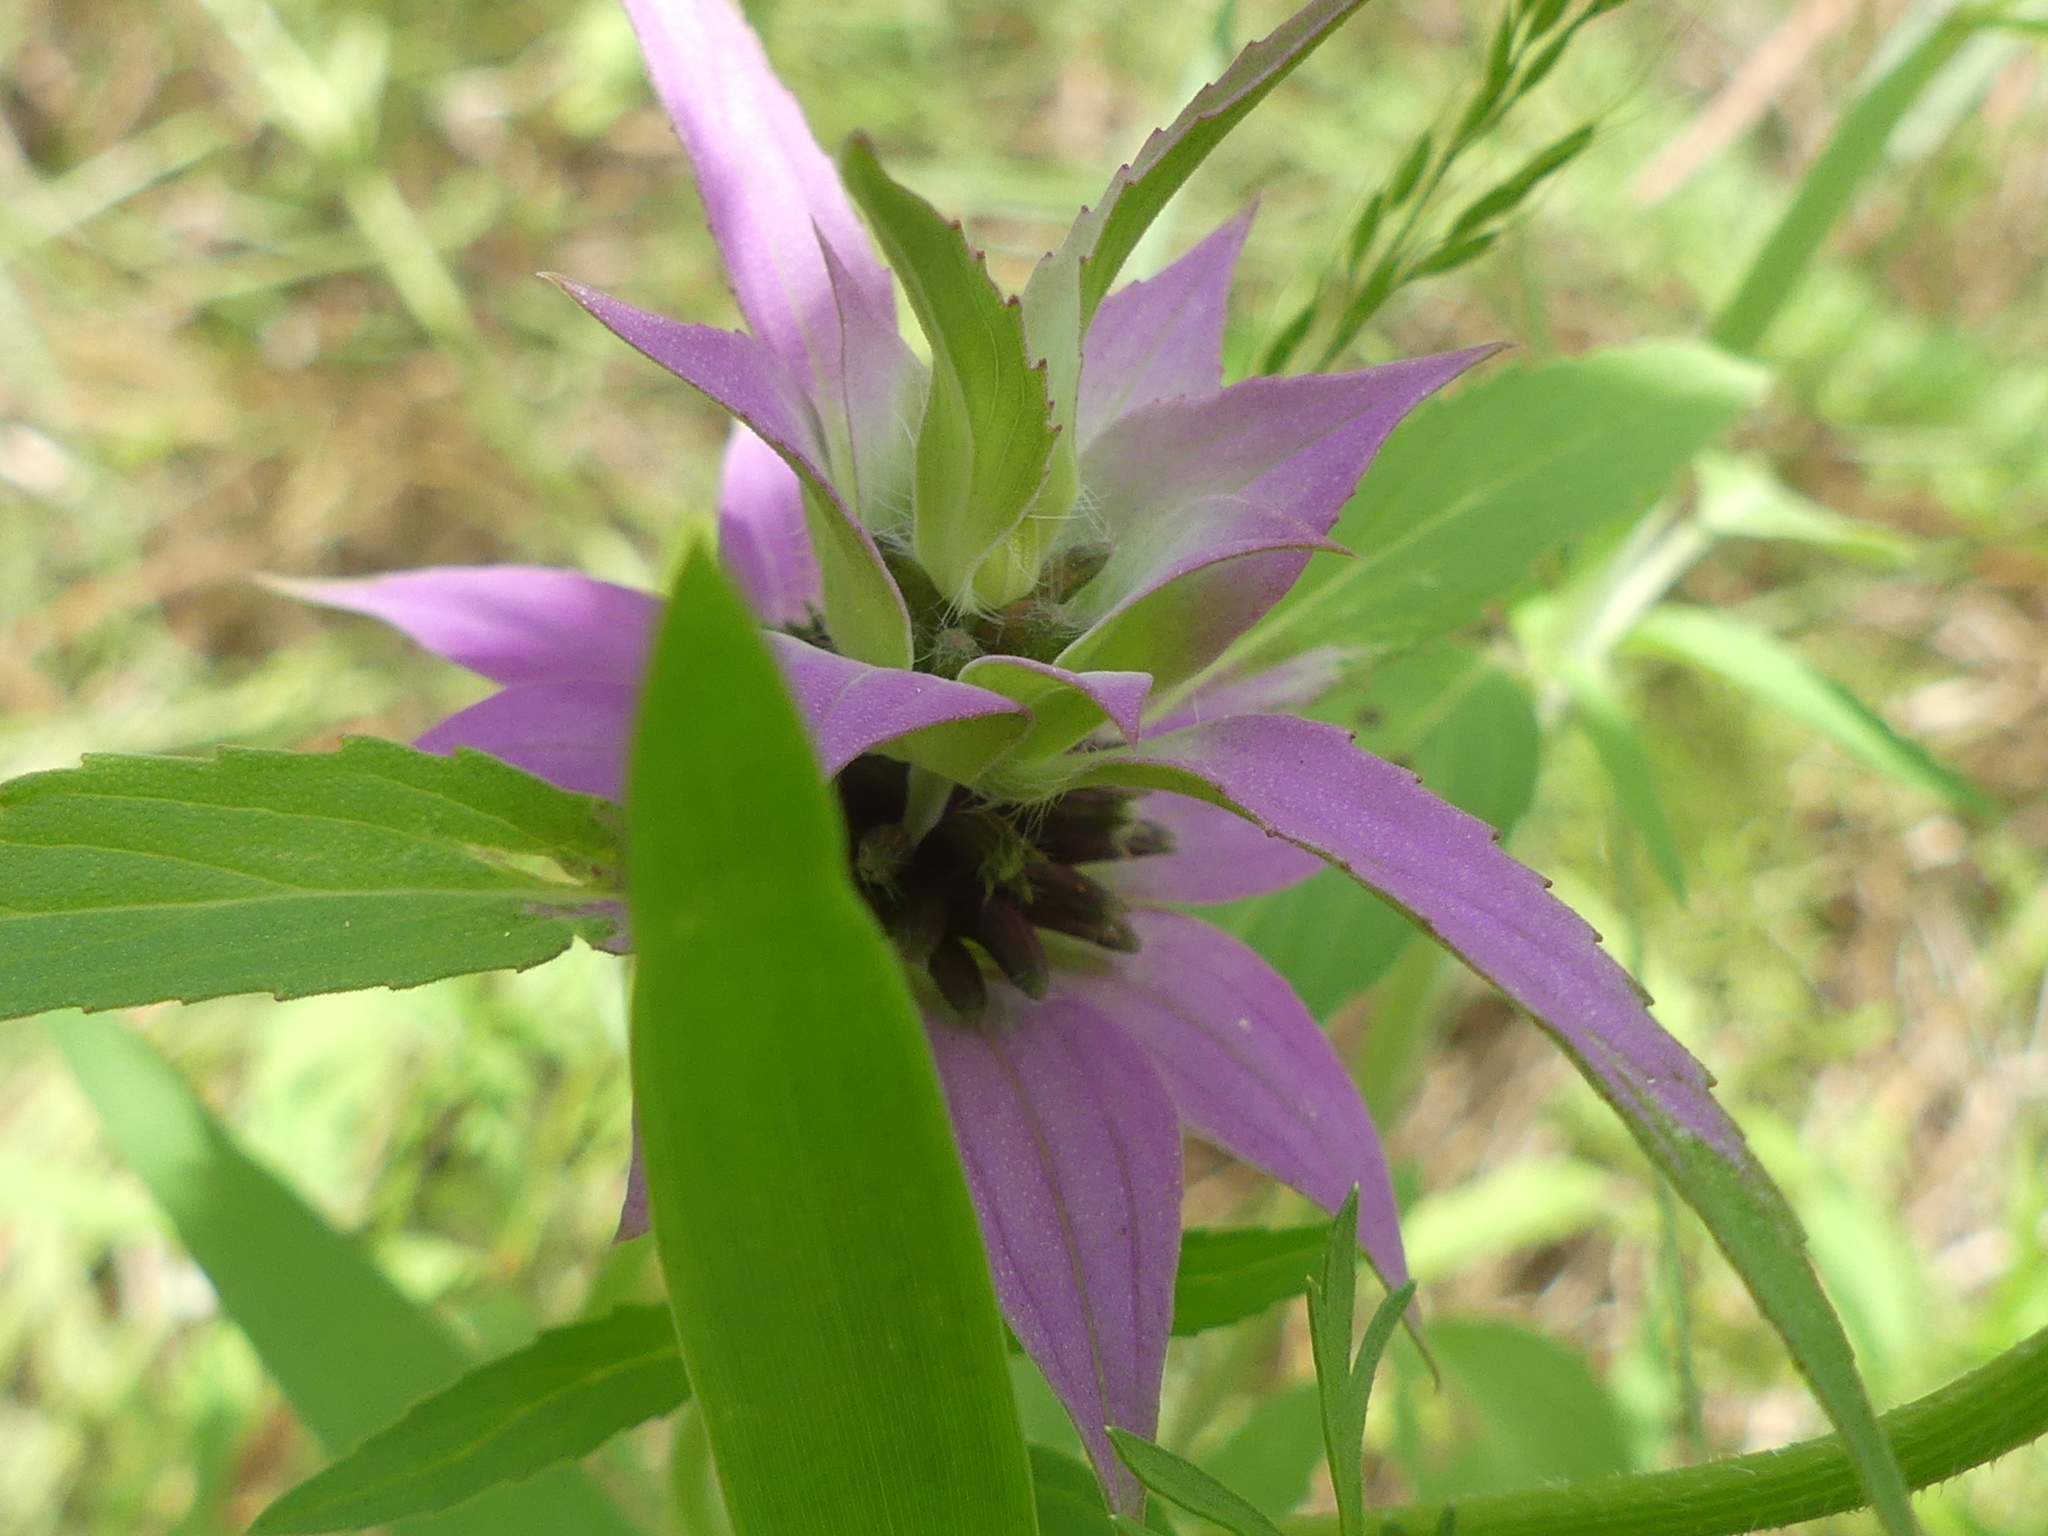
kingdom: Plantae
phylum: Tracheophyta
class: Magnoliopsida
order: Lamiales
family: Lamiaceae
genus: Monarda
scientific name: Monarda punctata
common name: Dotted monarda
